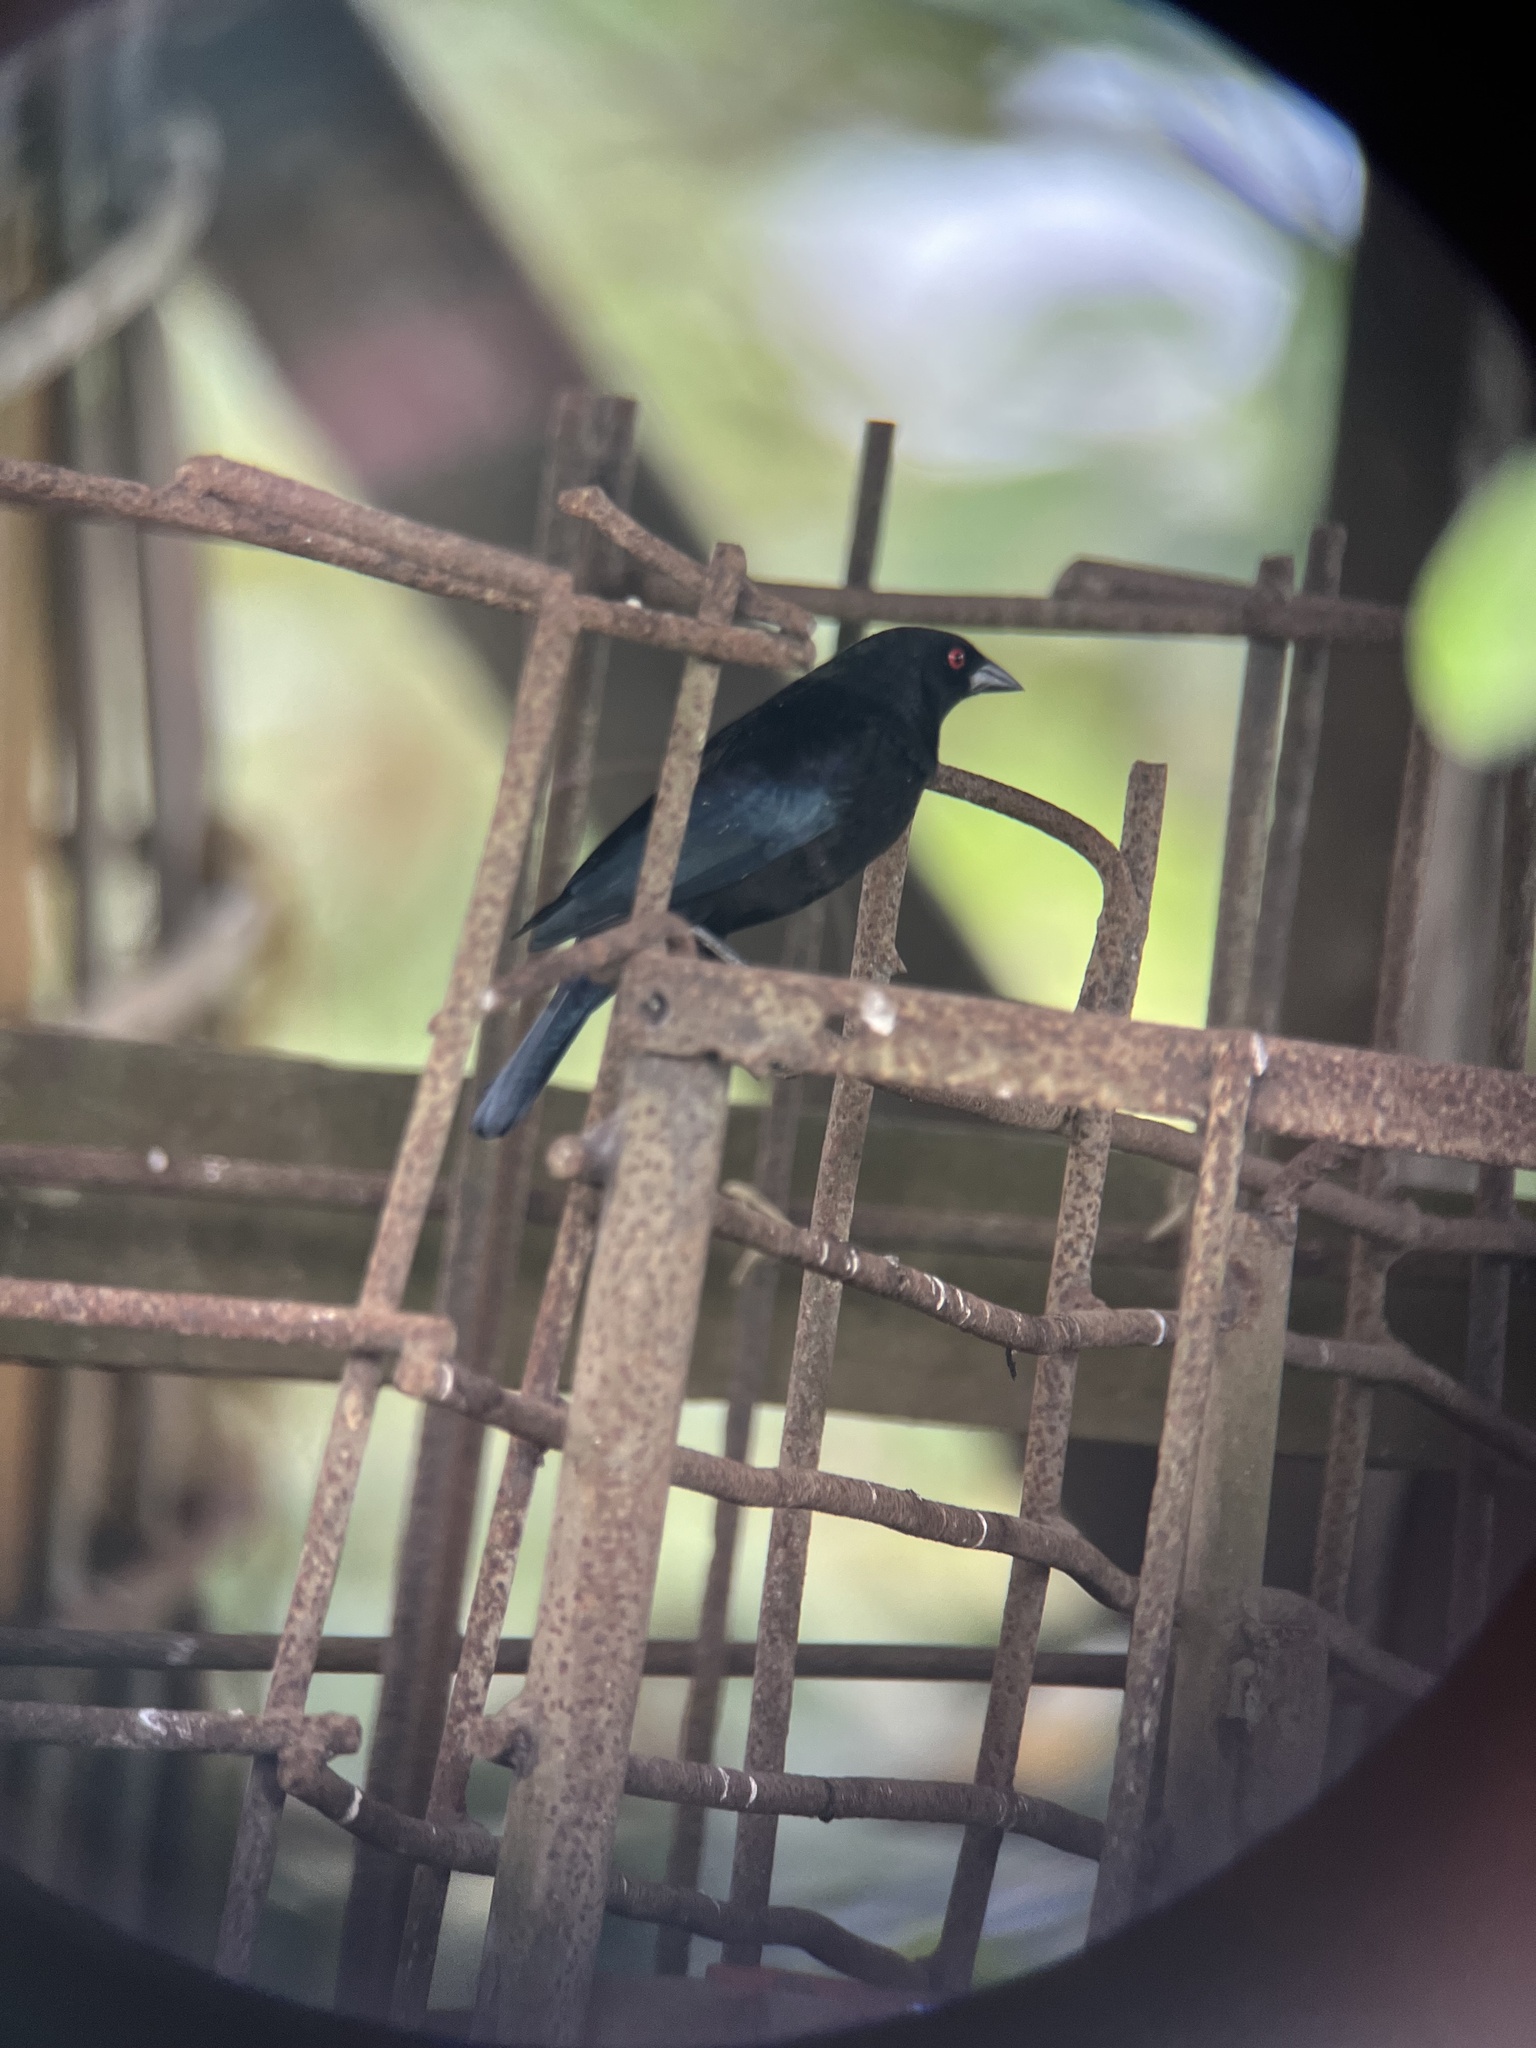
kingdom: Animalia
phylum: Chordata
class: Aves
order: Passeriformes
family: Icteridae
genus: Molothrus
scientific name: Molothrus aeneus
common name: Bronzed cowbird
